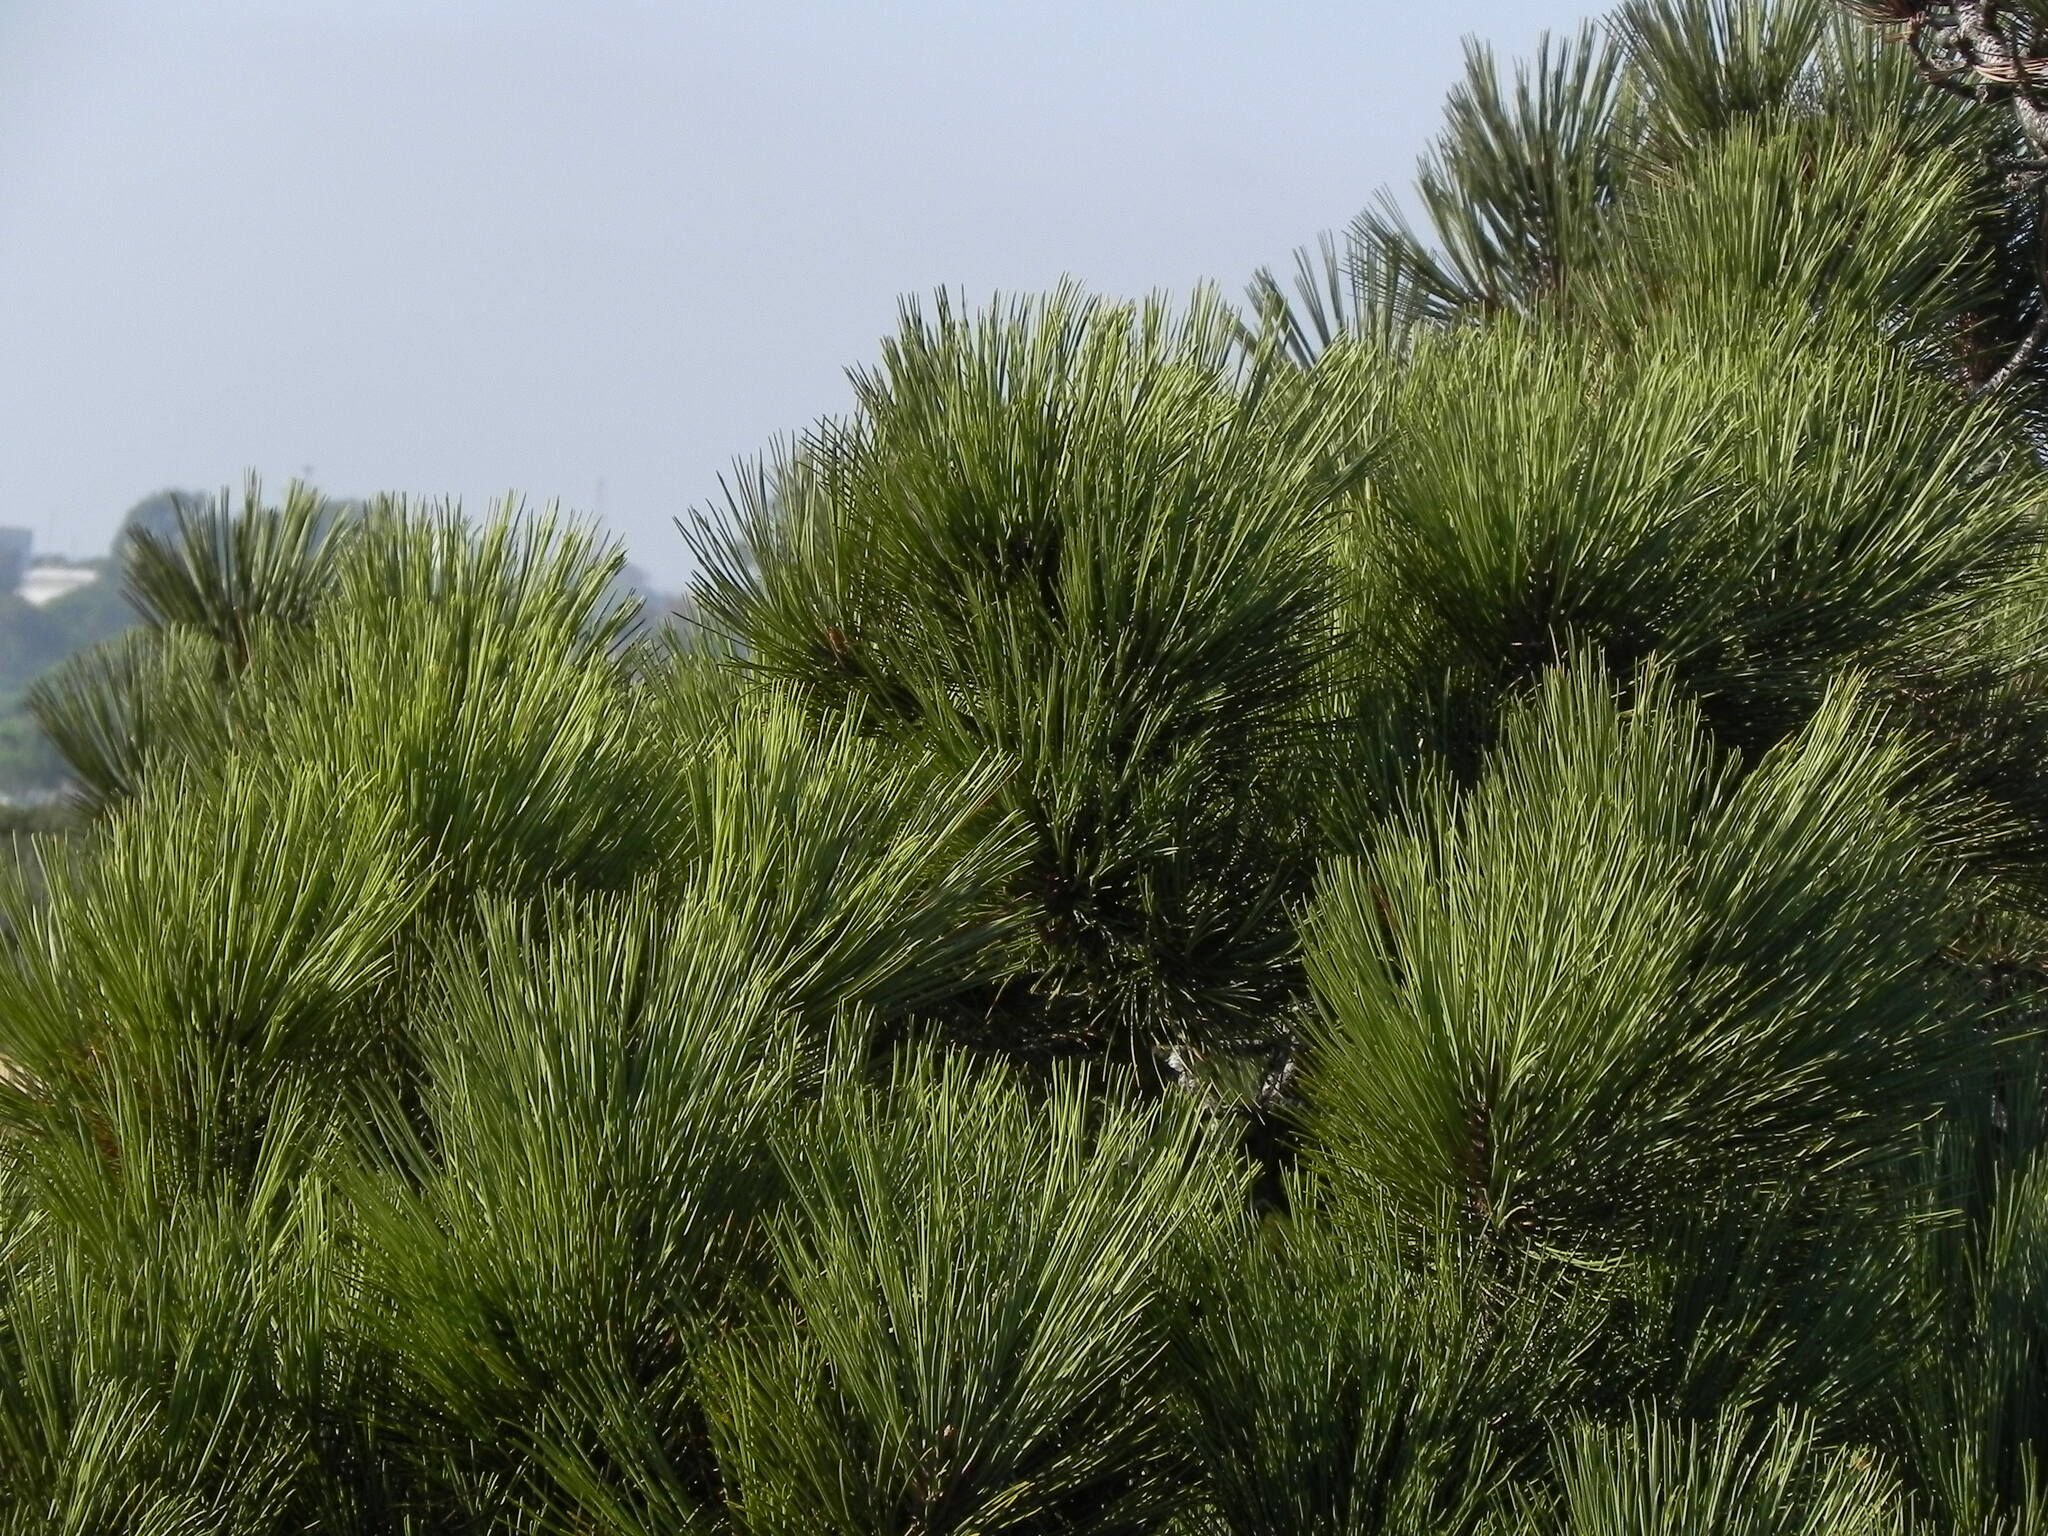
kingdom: Plantae
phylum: Tracheophyta
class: Pinopsida
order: Pinales
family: Pinaceae
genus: Pinus
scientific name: Pinus torreyana
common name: Torrey pine
